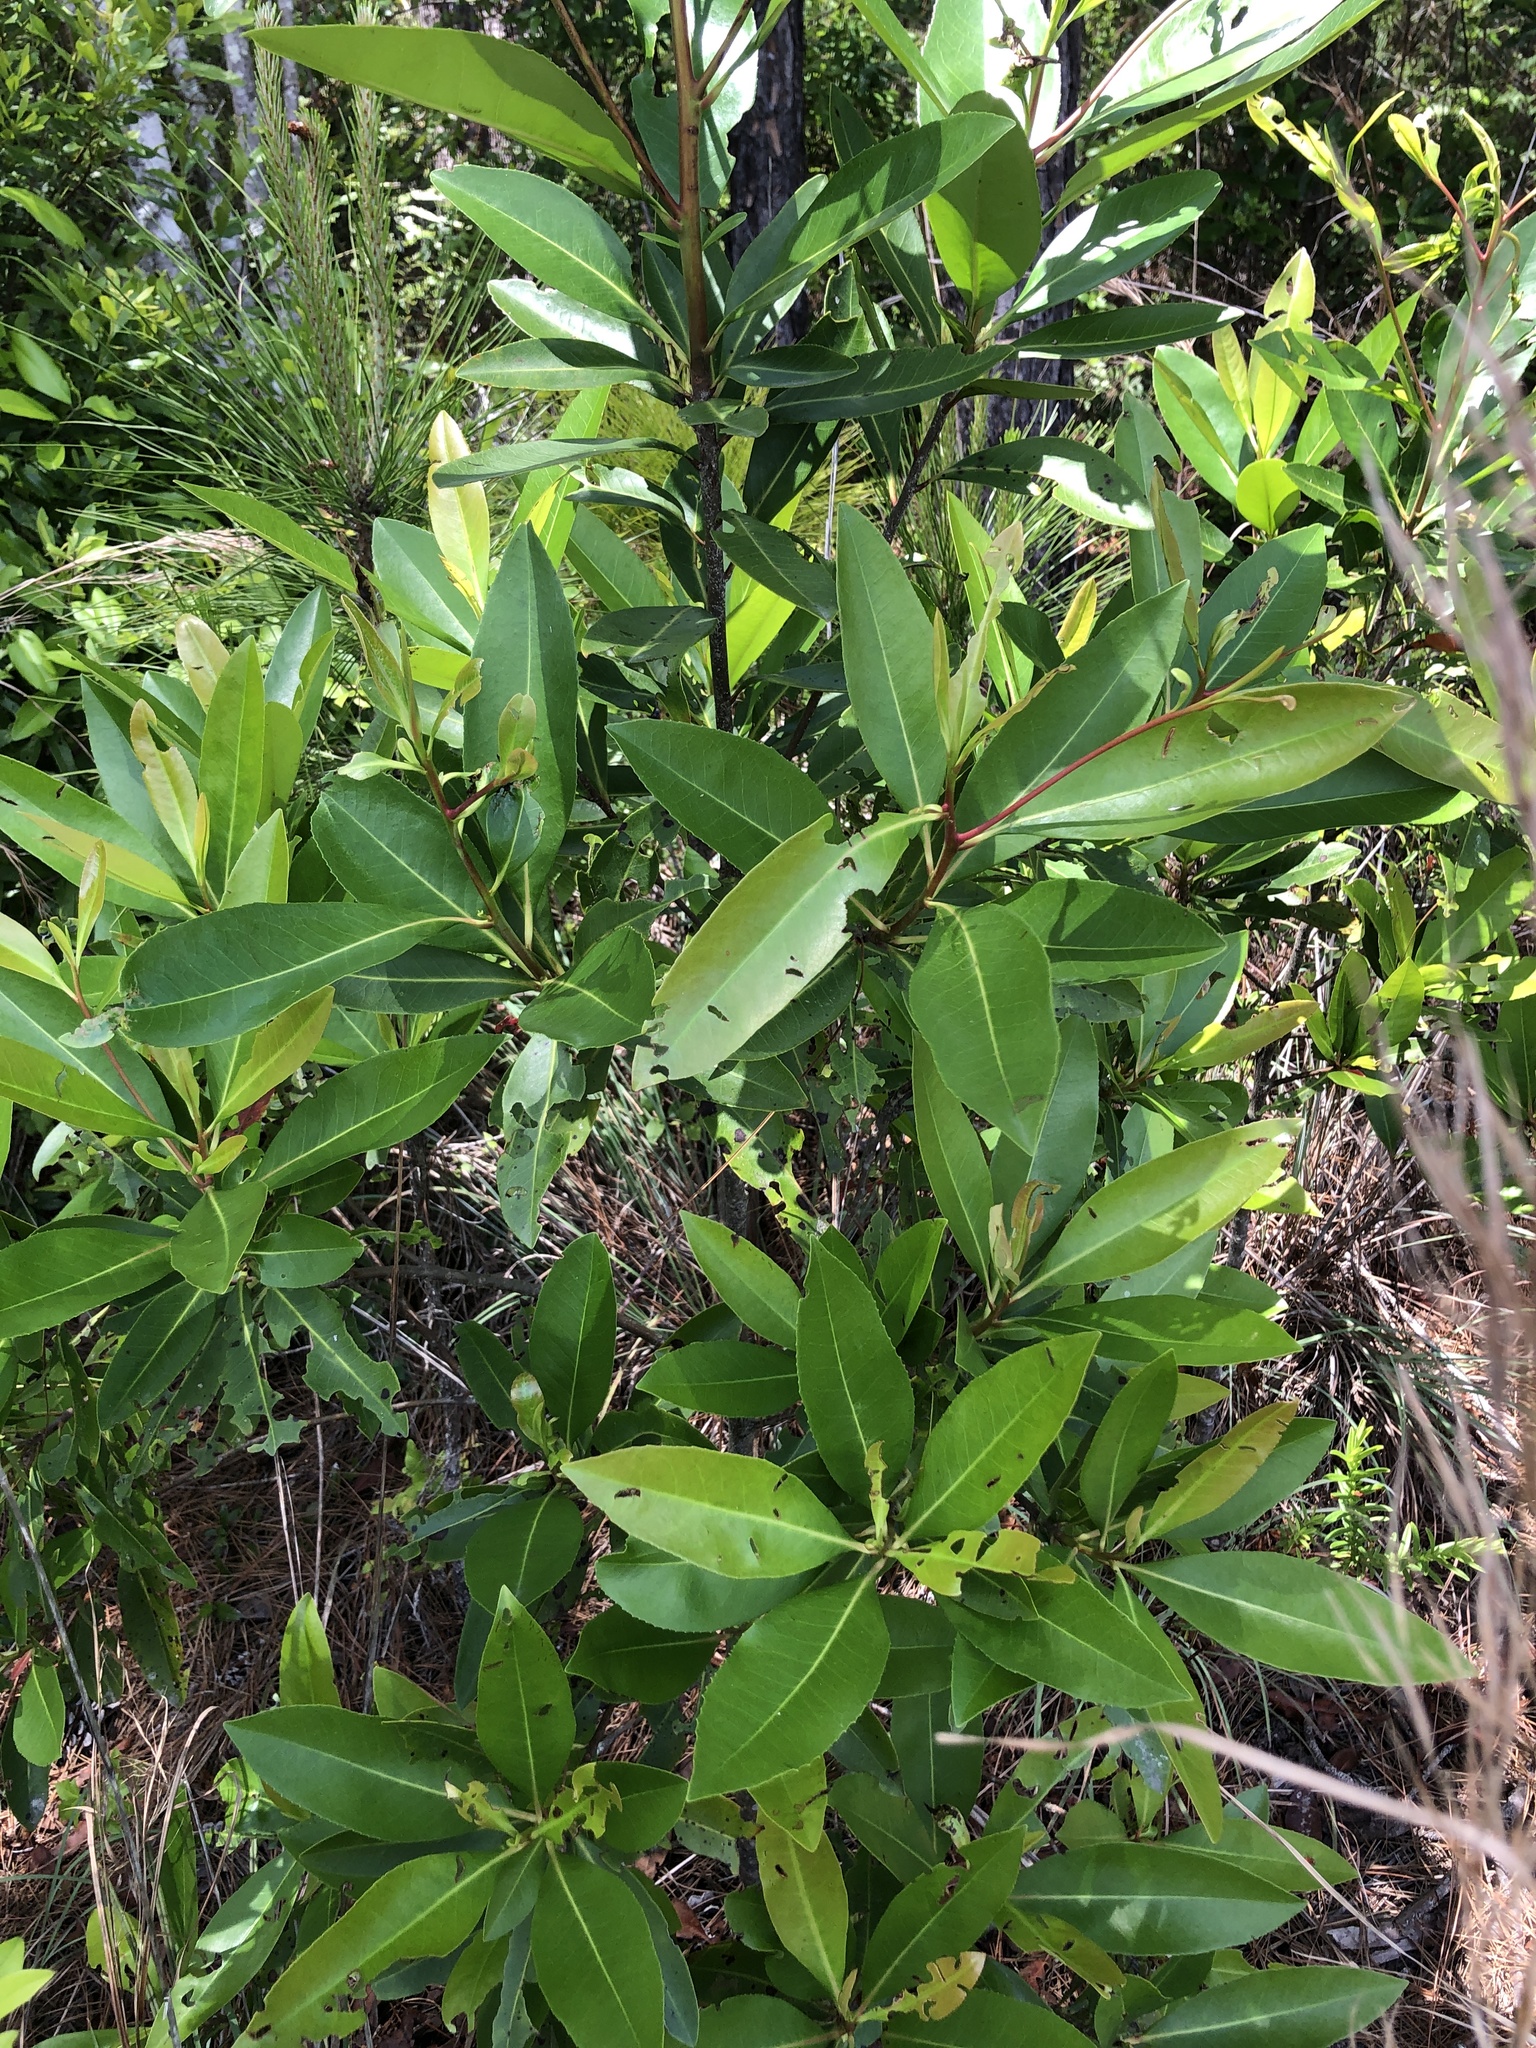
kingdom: Plantae
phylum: Tracheophyta
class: Magnoliopsida
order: Ericales
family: Theaceae
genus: Gordonia
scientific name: Gordonia lasianthus
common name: Loblolly bay
